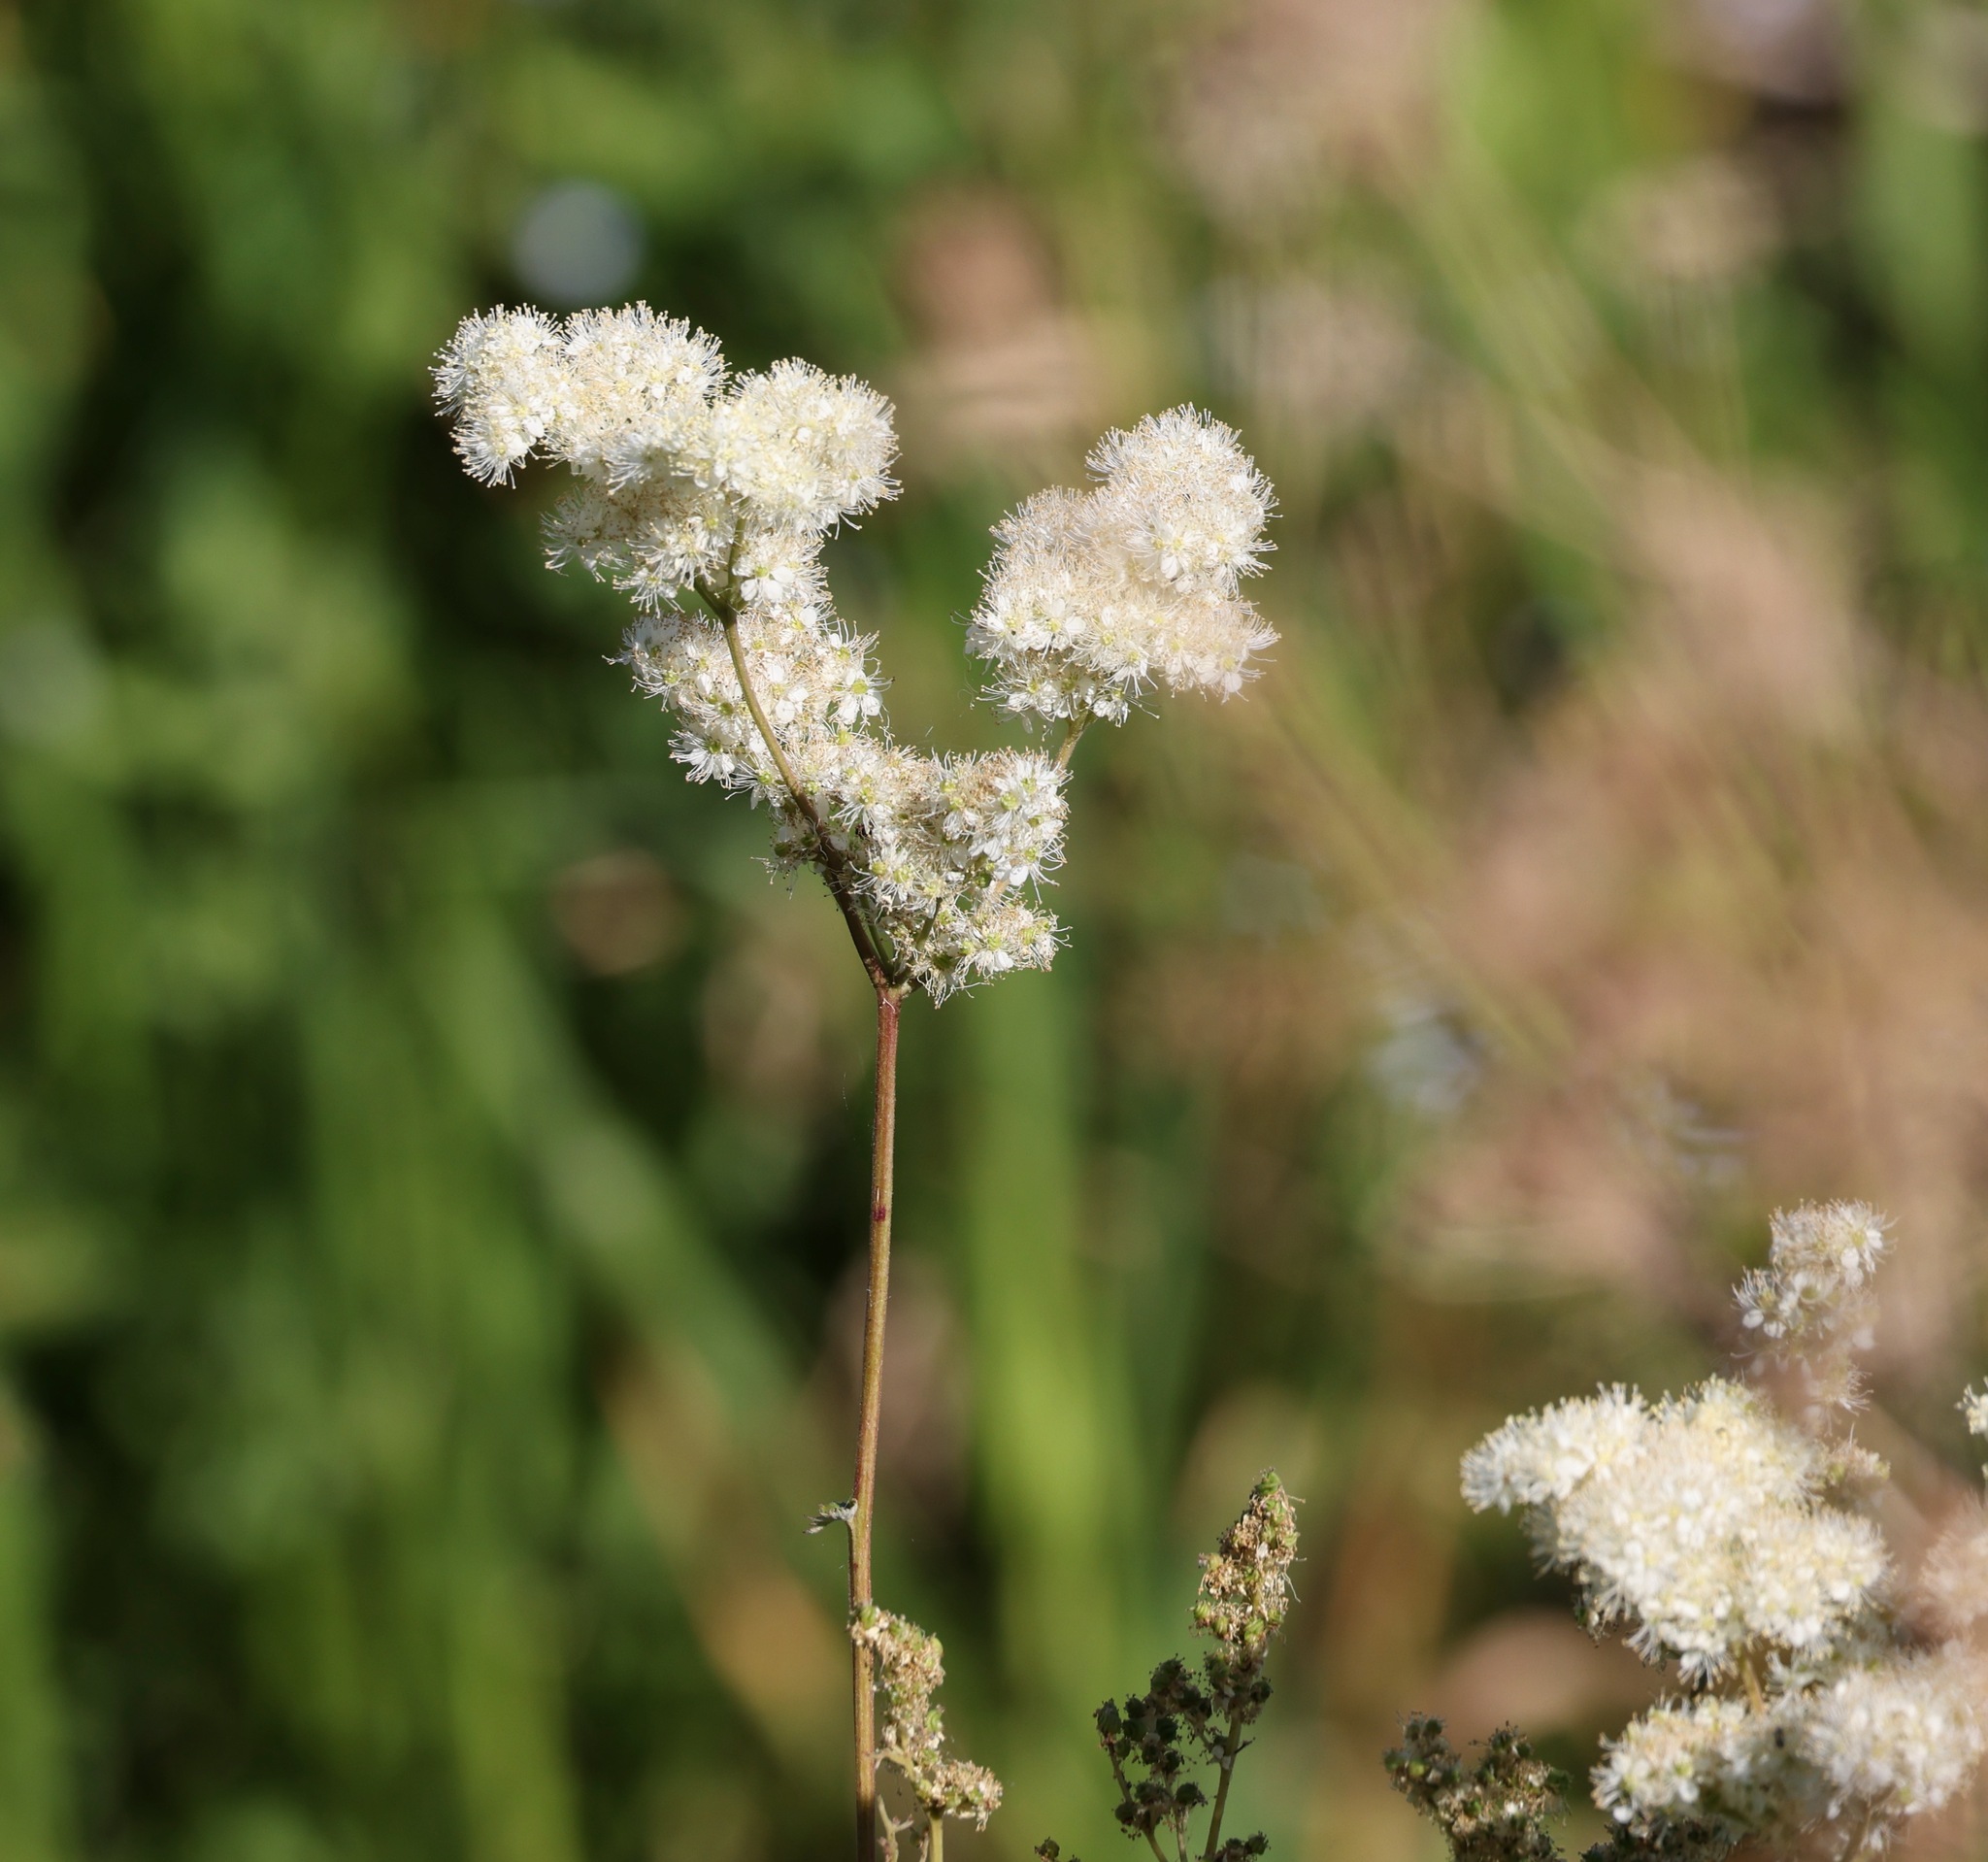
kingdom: Plantae
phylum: Tracheophyta
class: Magnoliopsida
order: Rosales
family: Rosaceae
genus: Filipendula
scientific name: Filipendula ulmaria
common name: Meadowsweet
